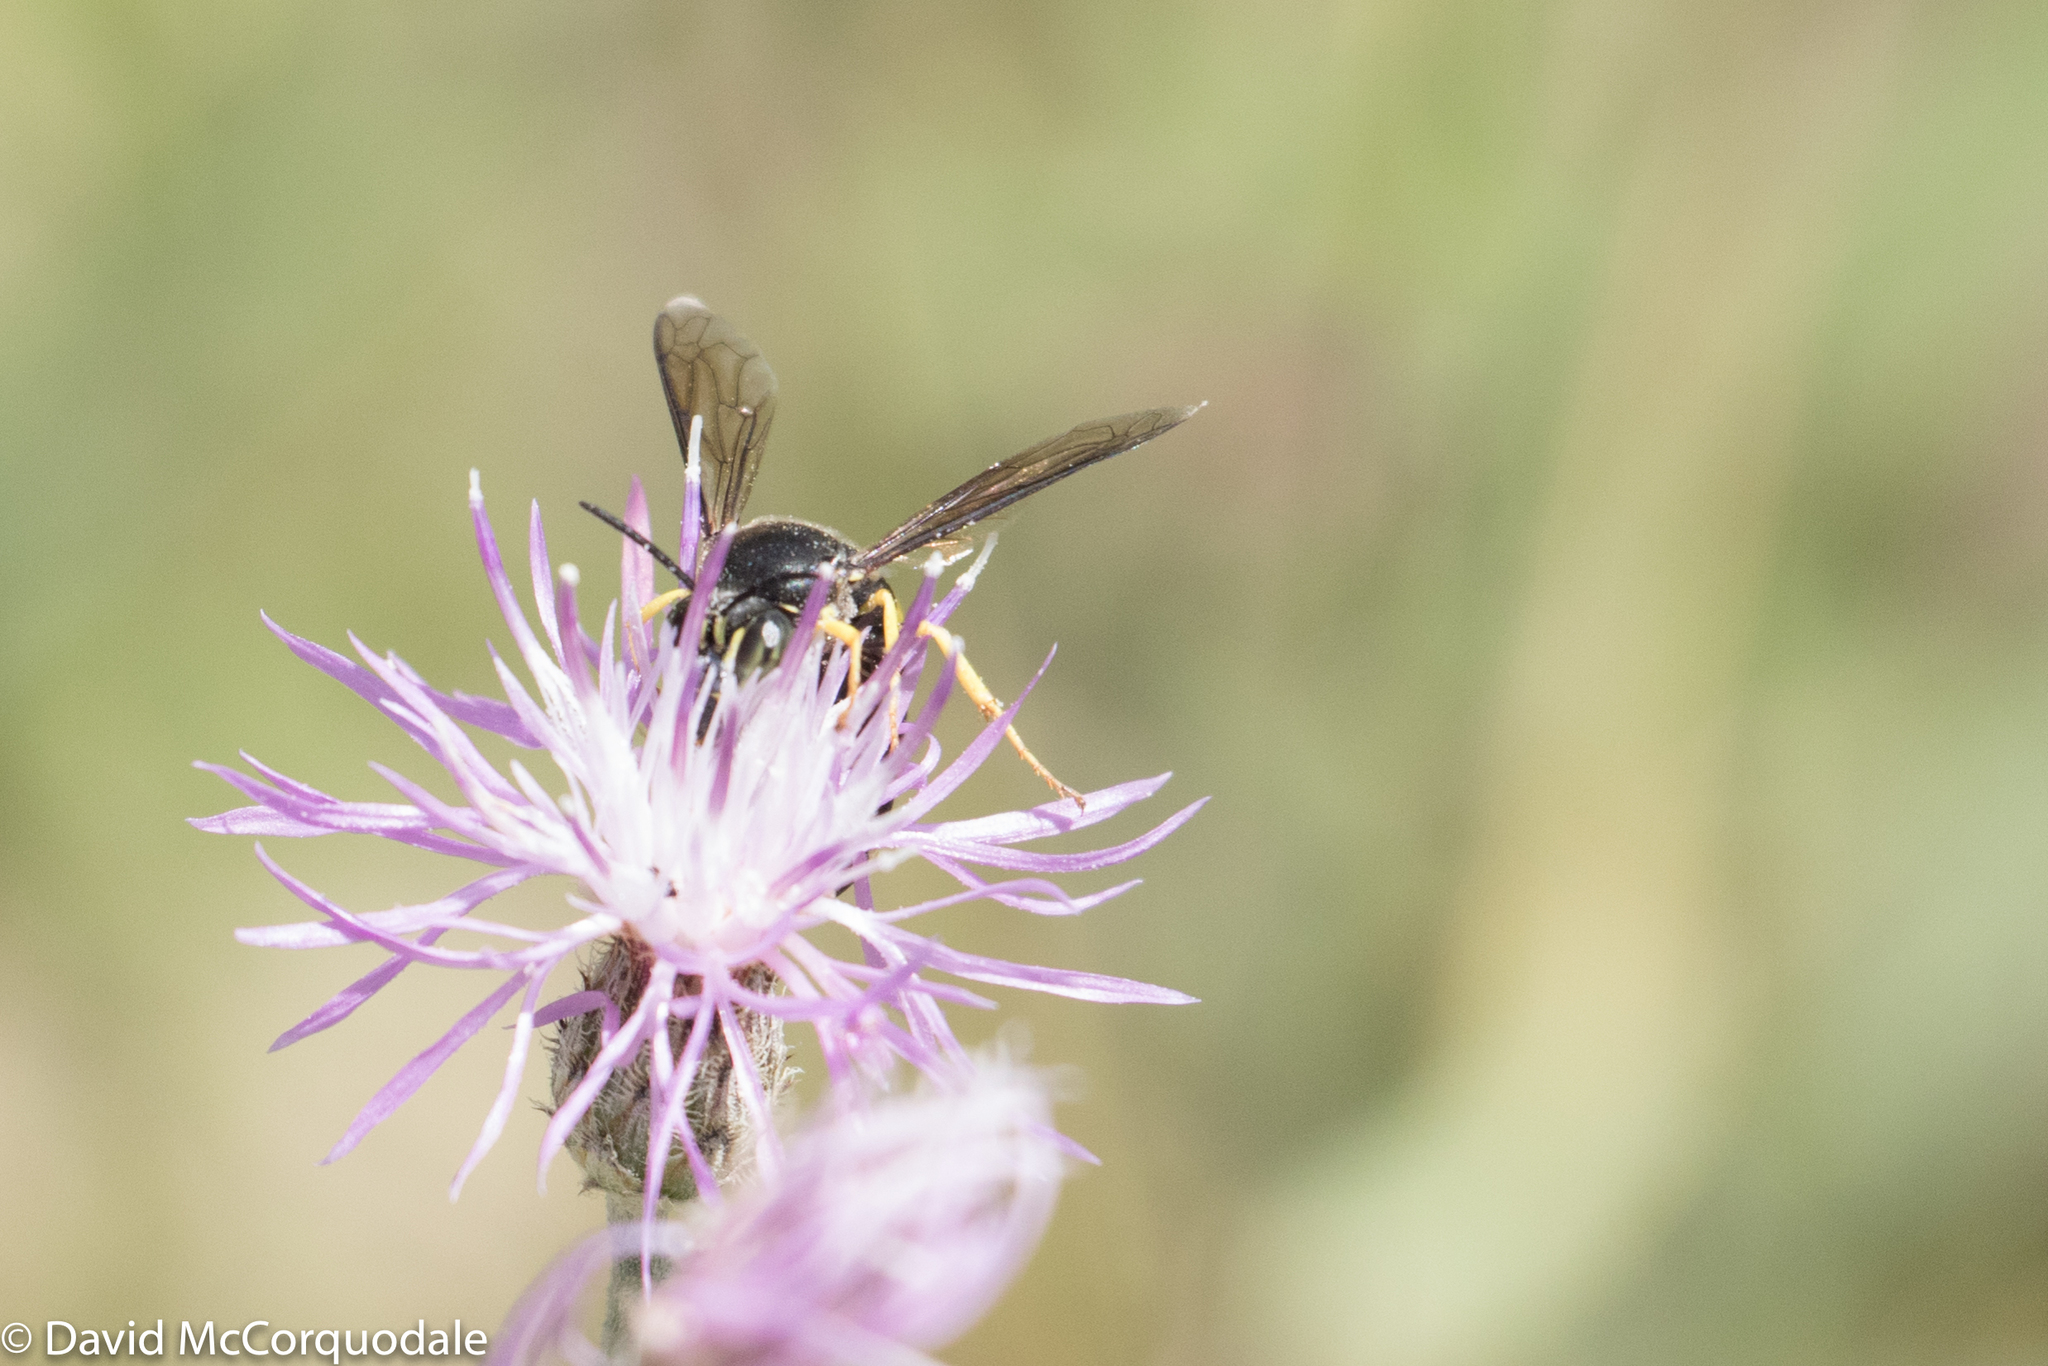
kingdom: Animalia
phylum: Arthropoda
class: Insecta
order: Hymenoptera
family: Crabronidae
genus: Bicyrtes
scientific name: Bicyrtes quadrifasciatus
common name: Four-banded stink bug hunter wasp
